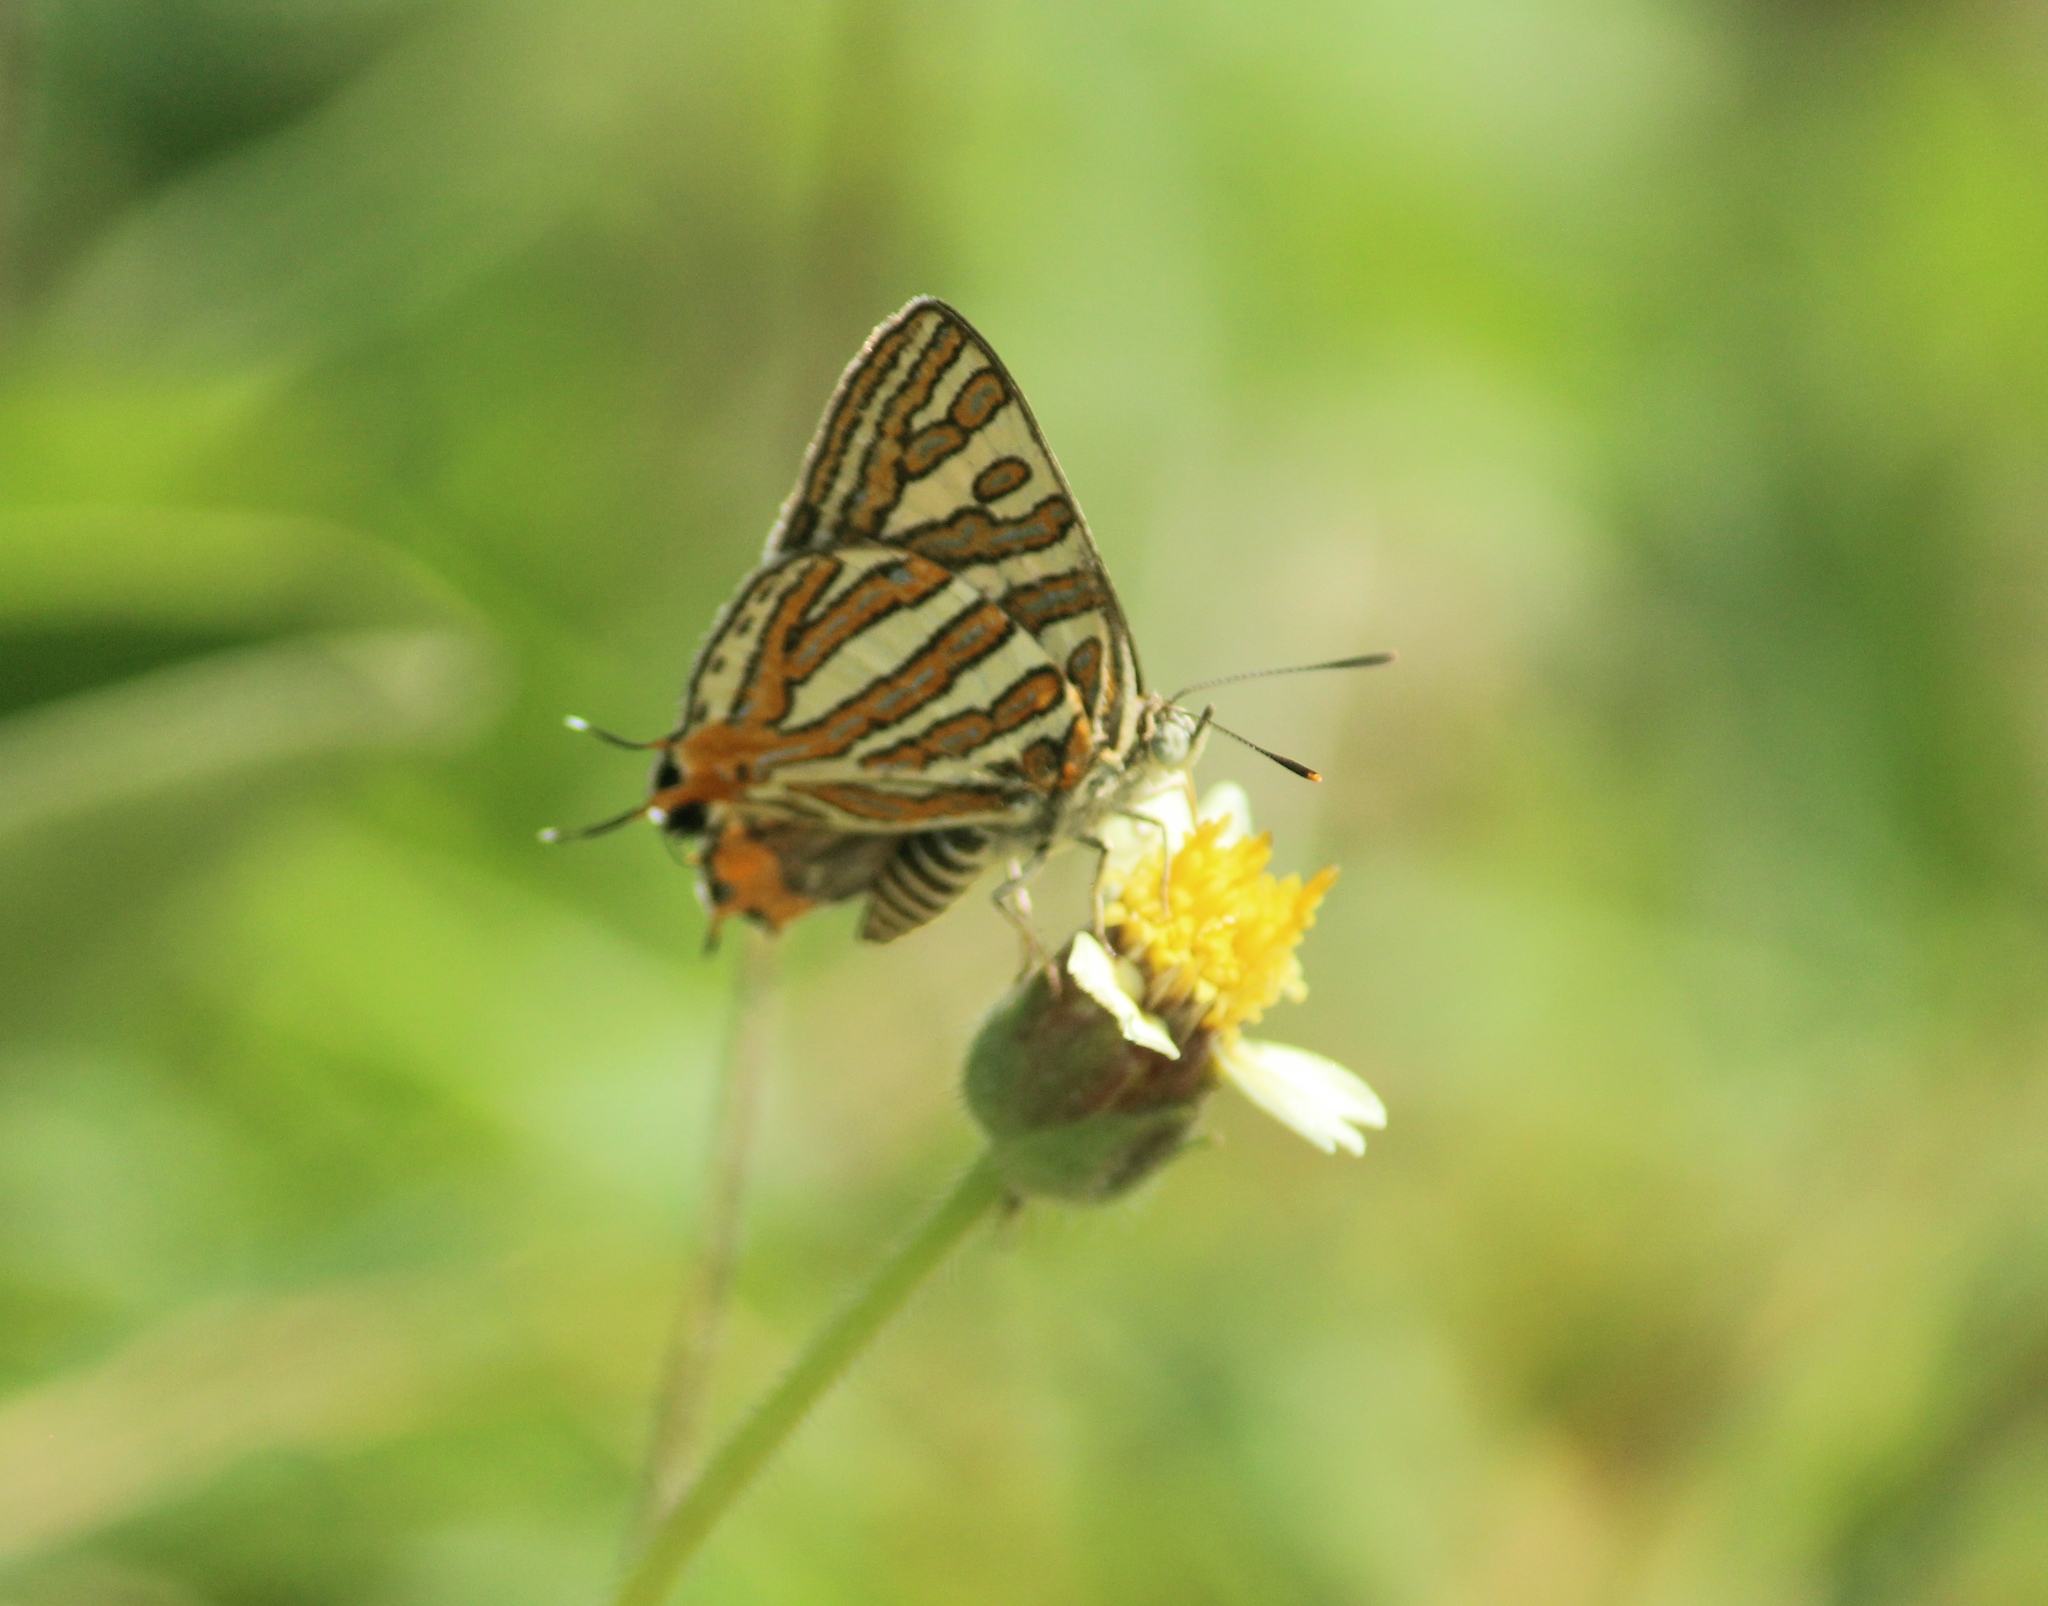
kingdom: Animalia
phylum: Arthropoda
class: Insecta
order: Lepidoptera
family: Lycaenidae
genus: Cigaritis
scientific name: Cigaritis vulcanus
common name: Common silverline
